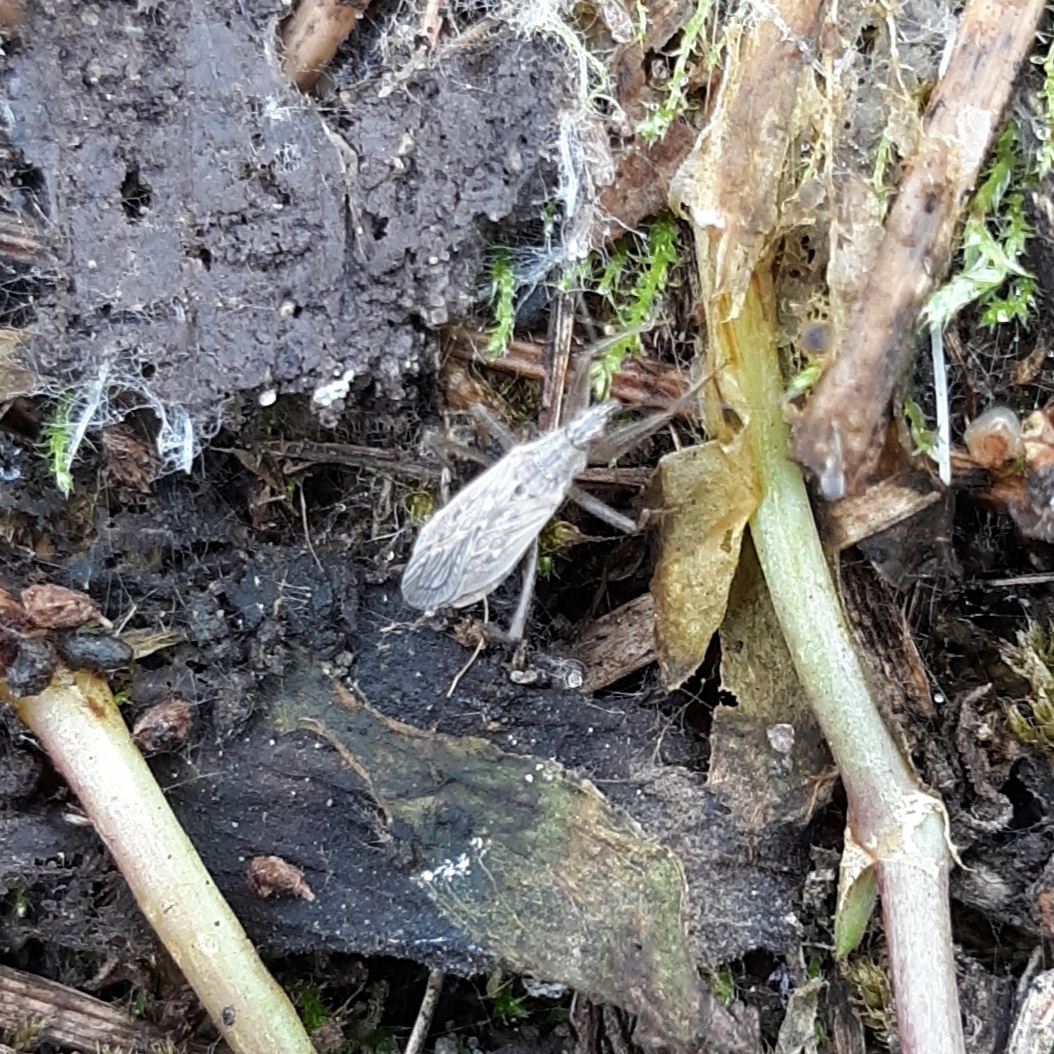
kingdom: Animalia
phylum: Arthropoda
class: Insecta
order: Hemiptera
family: Nabidae
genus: Nabis
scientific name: Nabis americoferus
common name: Common damsel bug
